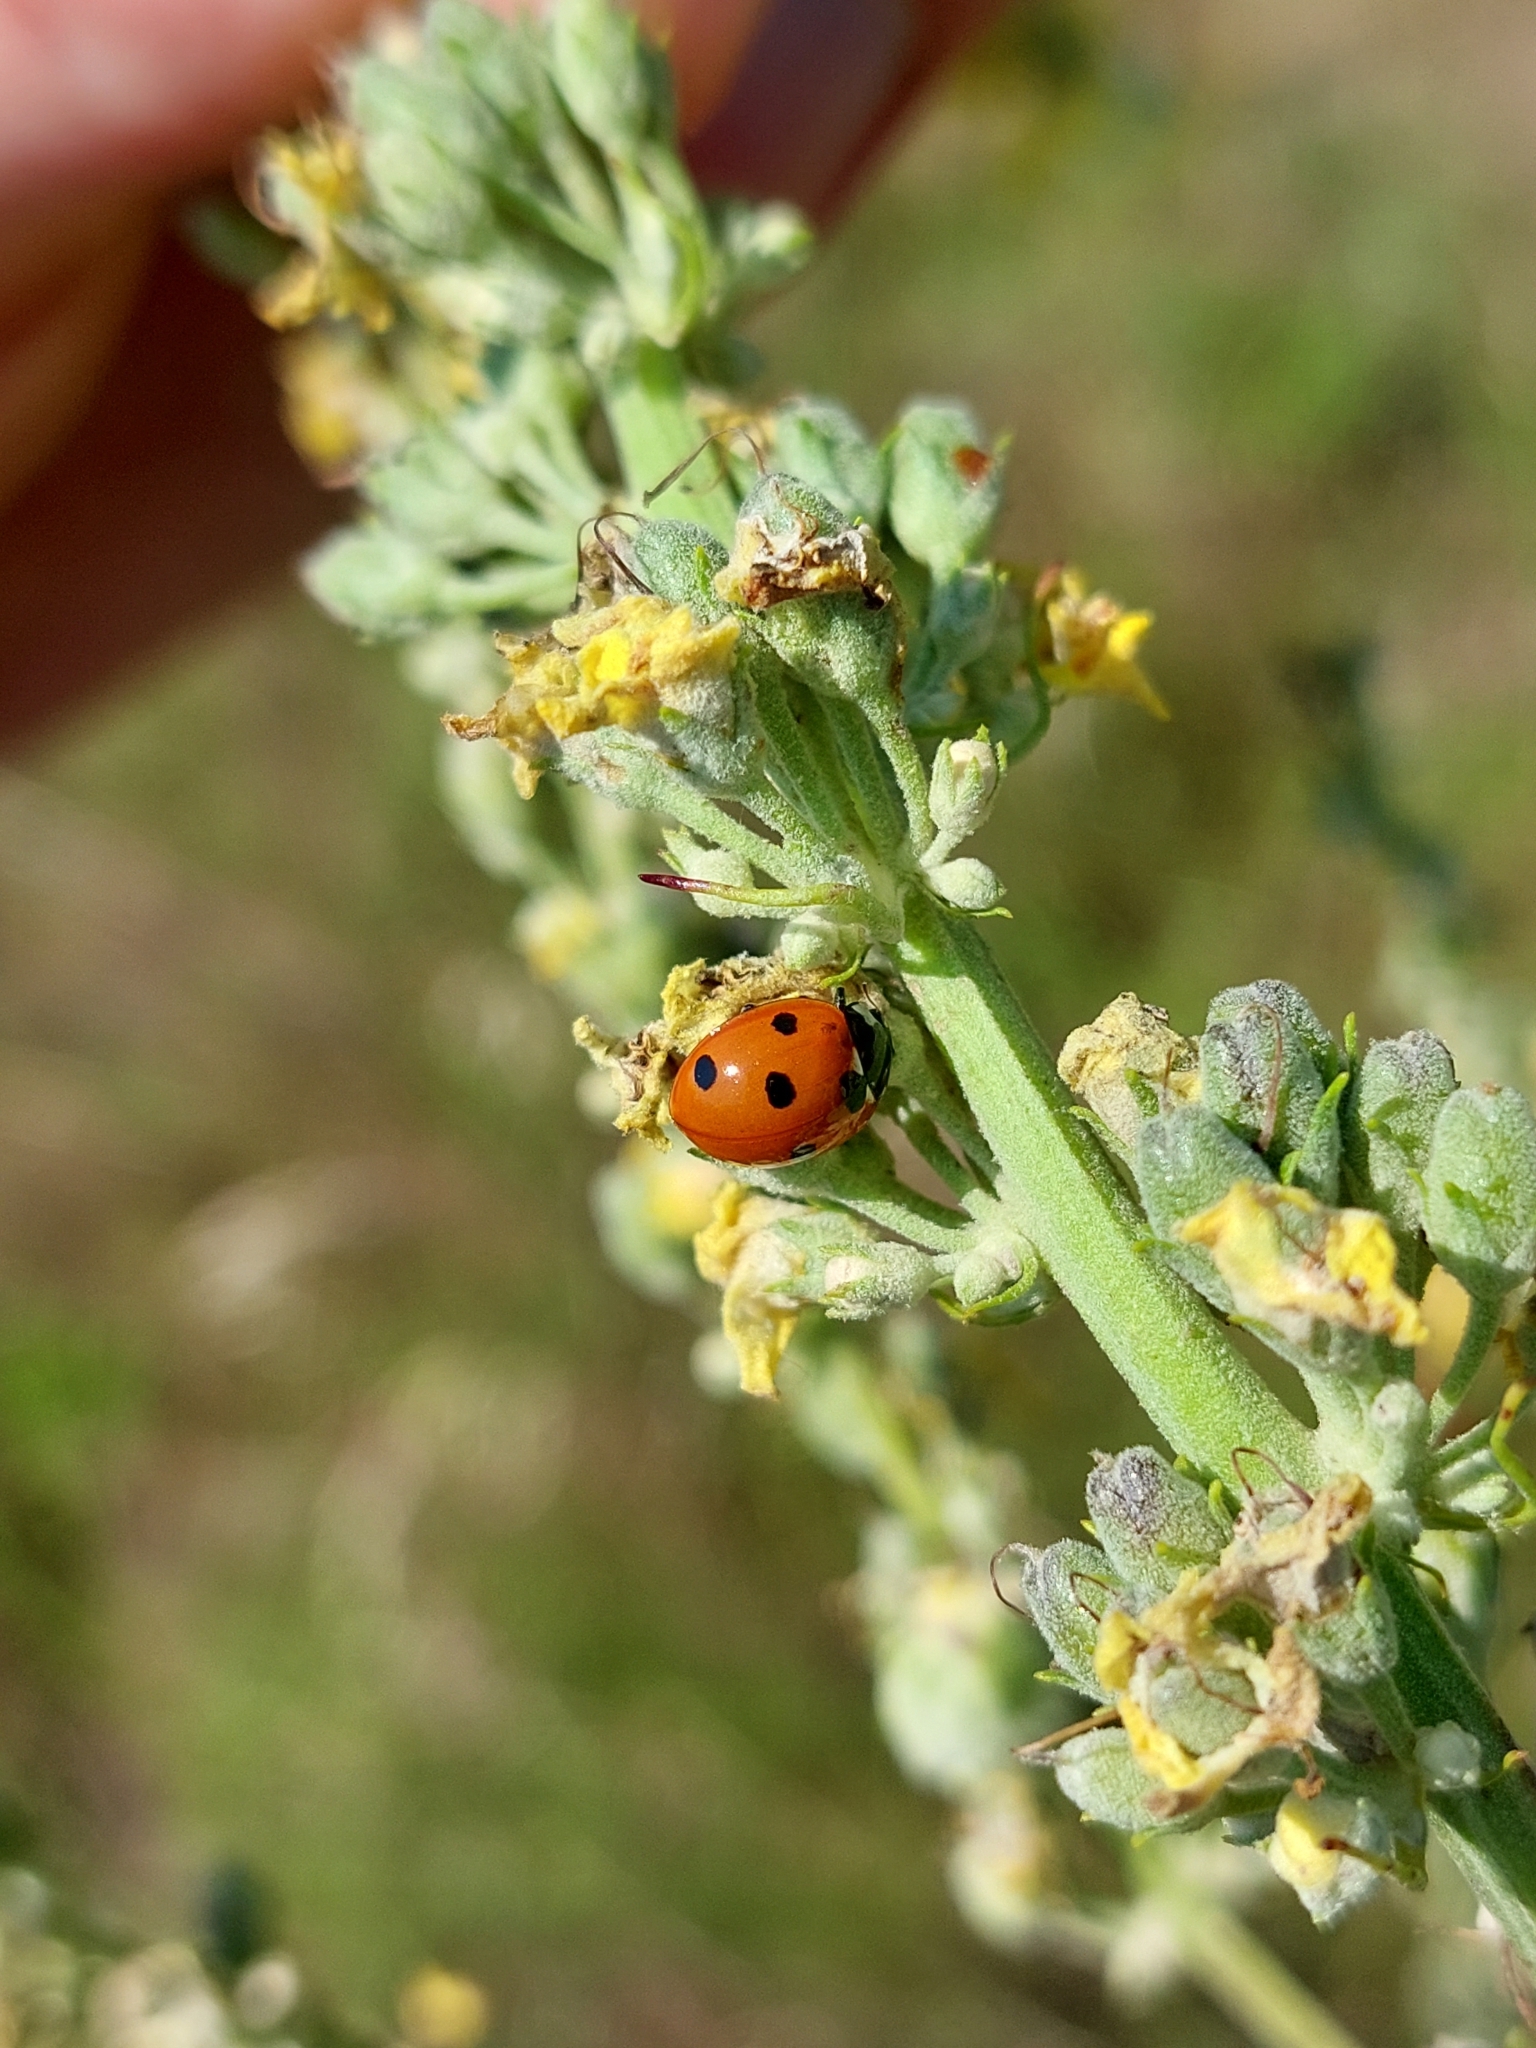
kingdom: Animalia
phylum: Arthropoda
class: Insecta
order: Coleoptera
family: Coccinellidae
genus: Coccinella
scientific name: Coccinella septempunctata
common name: Sevenspotted lady beetle
